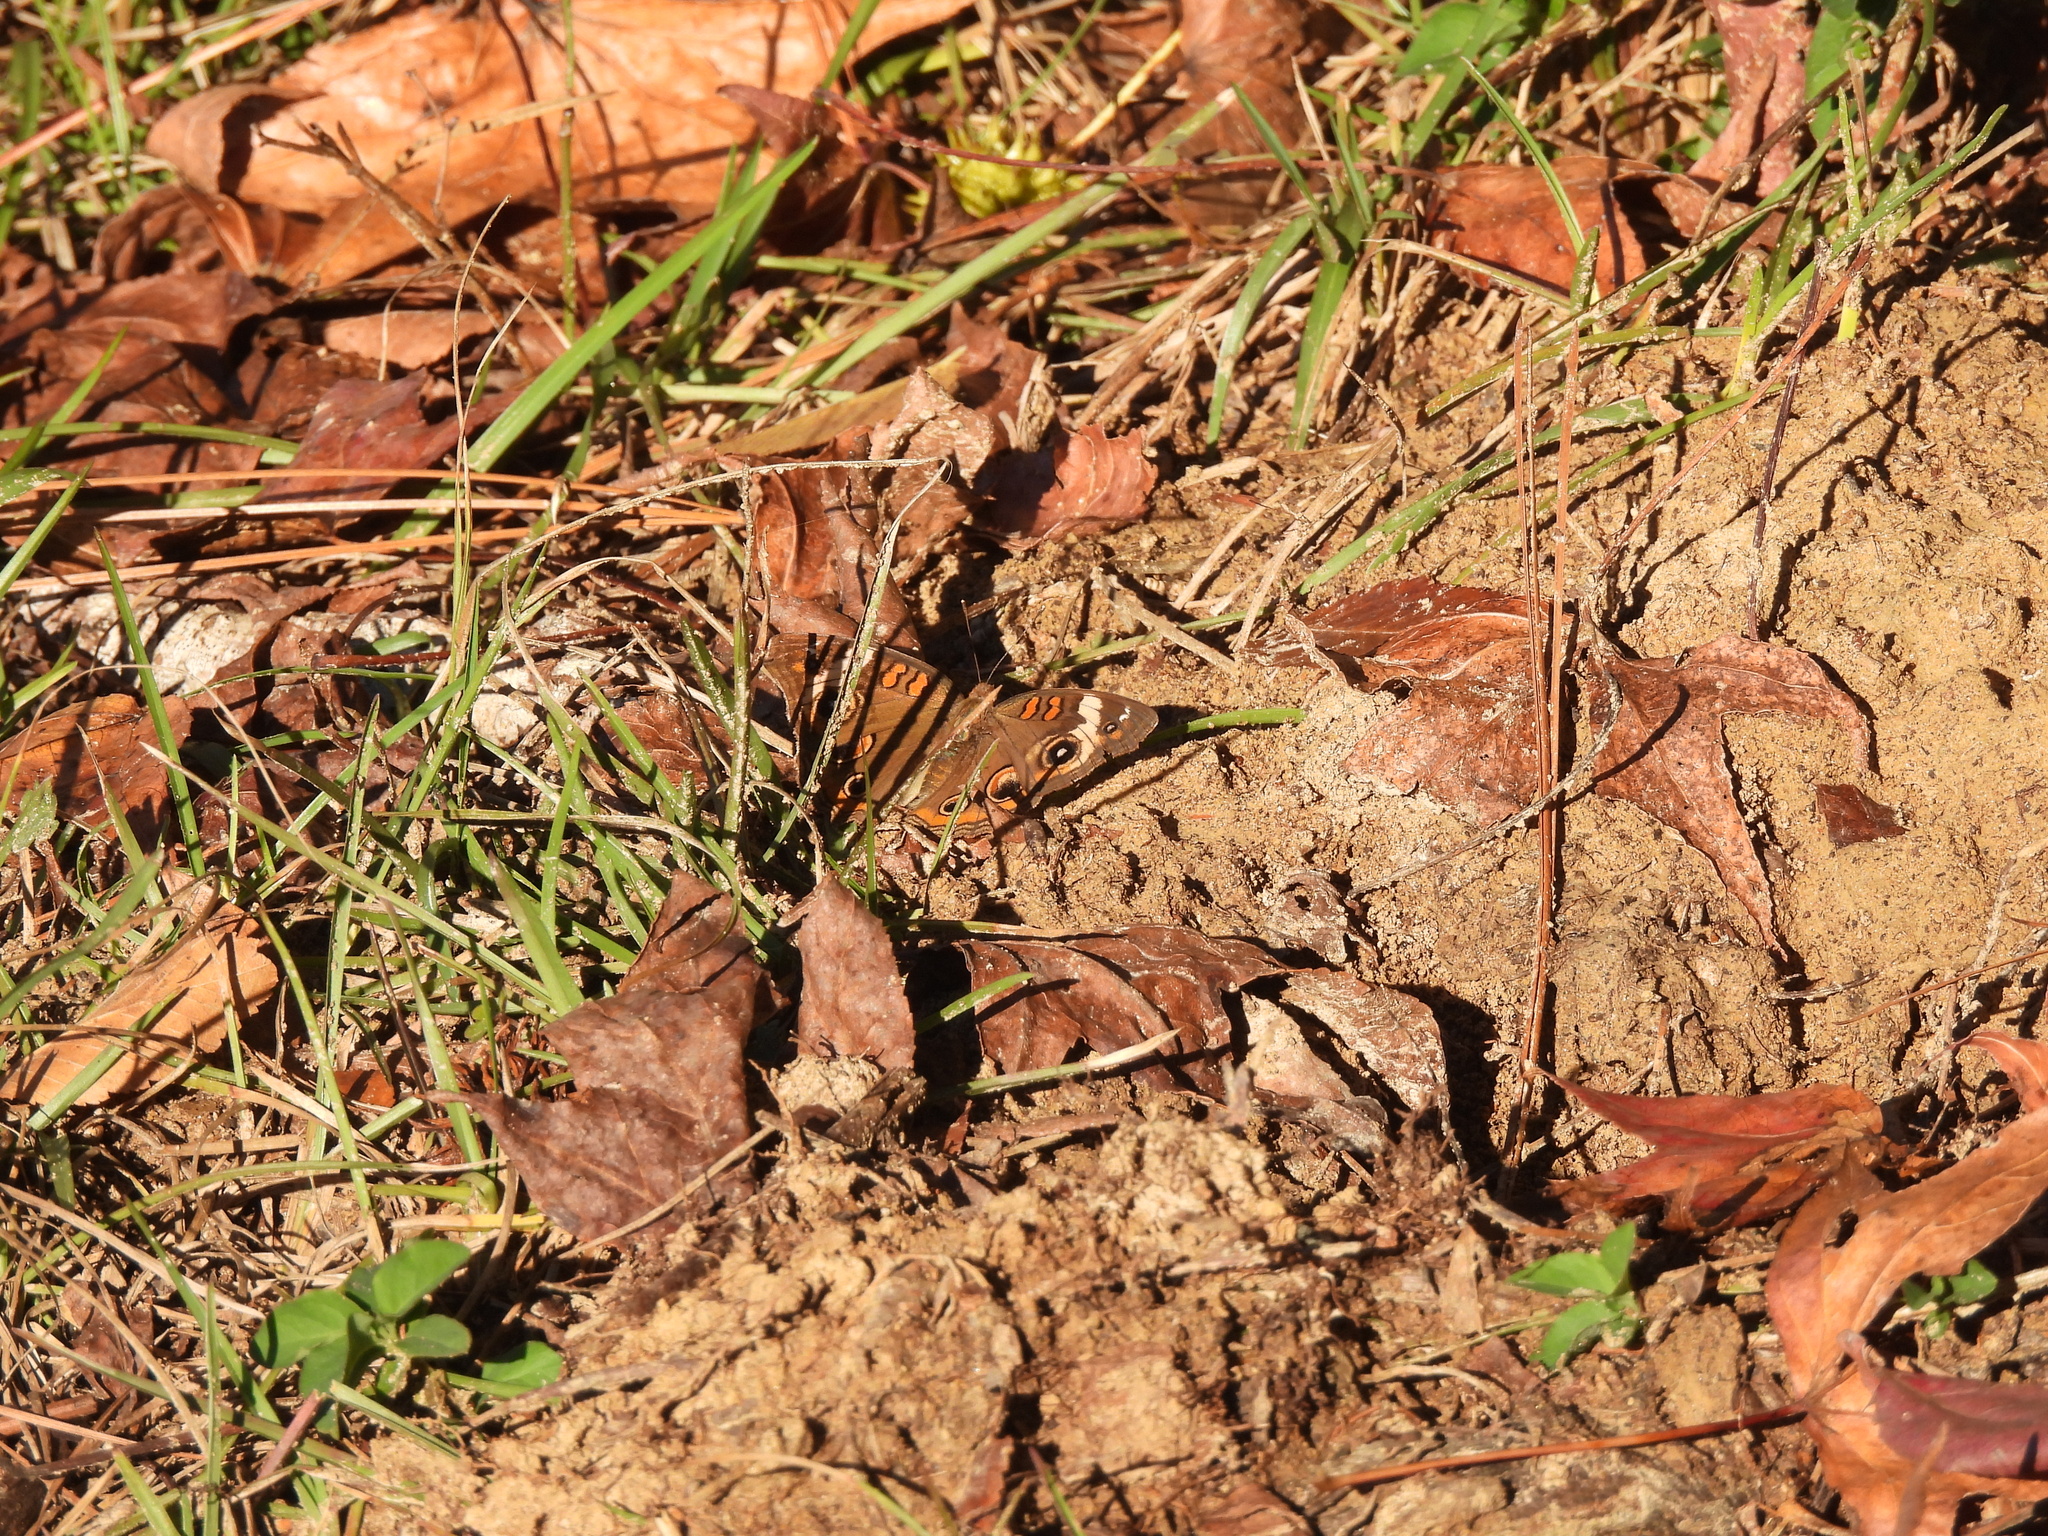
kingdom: Animalia
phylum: Arthropoda
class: Insecta
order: Lepidoptera
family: Nymphalidae
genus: Junonia
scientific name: Junonia coenia
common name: Common buckeye
